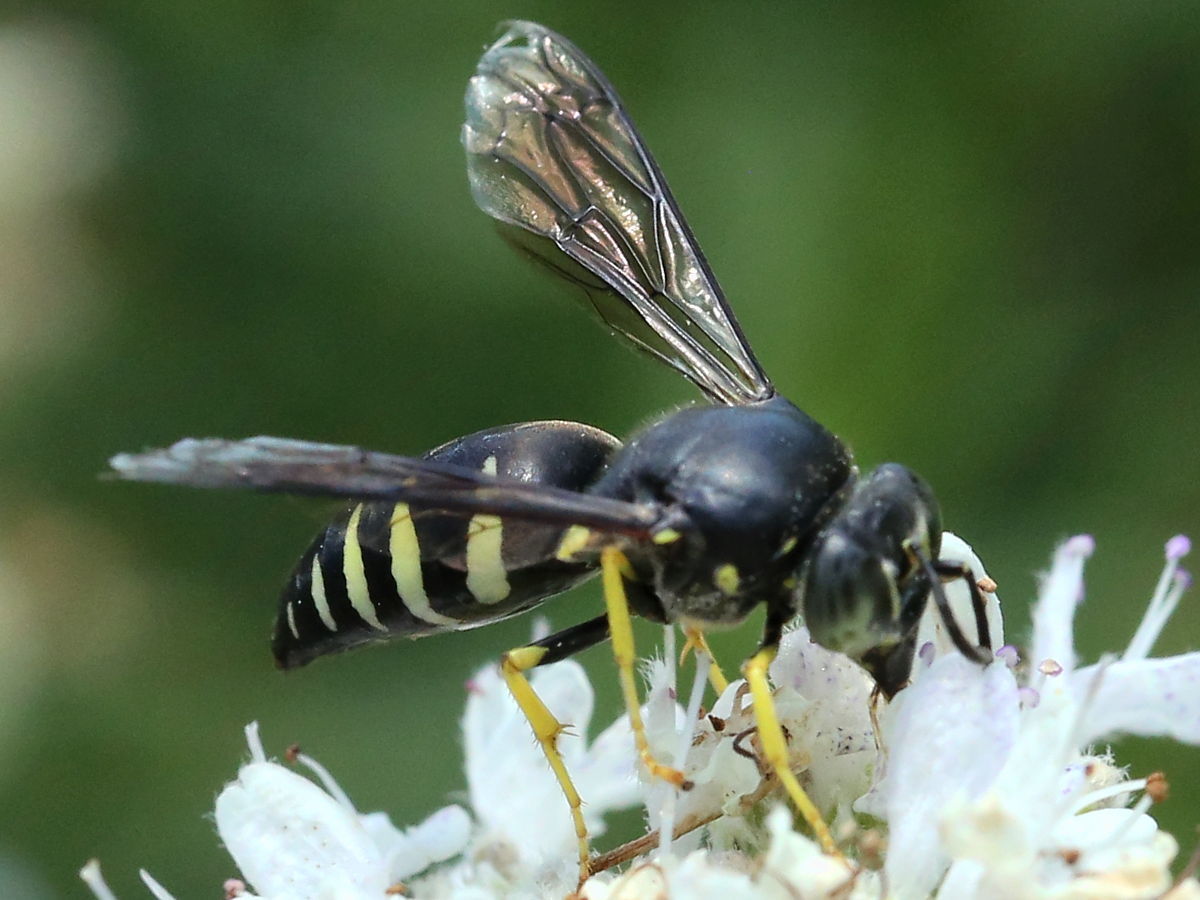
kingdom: Animalia
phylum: Arthropoda
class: Insecta
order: Hymenoptera
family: Crabronidae
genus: Bicyrtes
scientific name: Bicyrtes quadrifasciatus
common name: Four-banded stink bug hunter wasp
